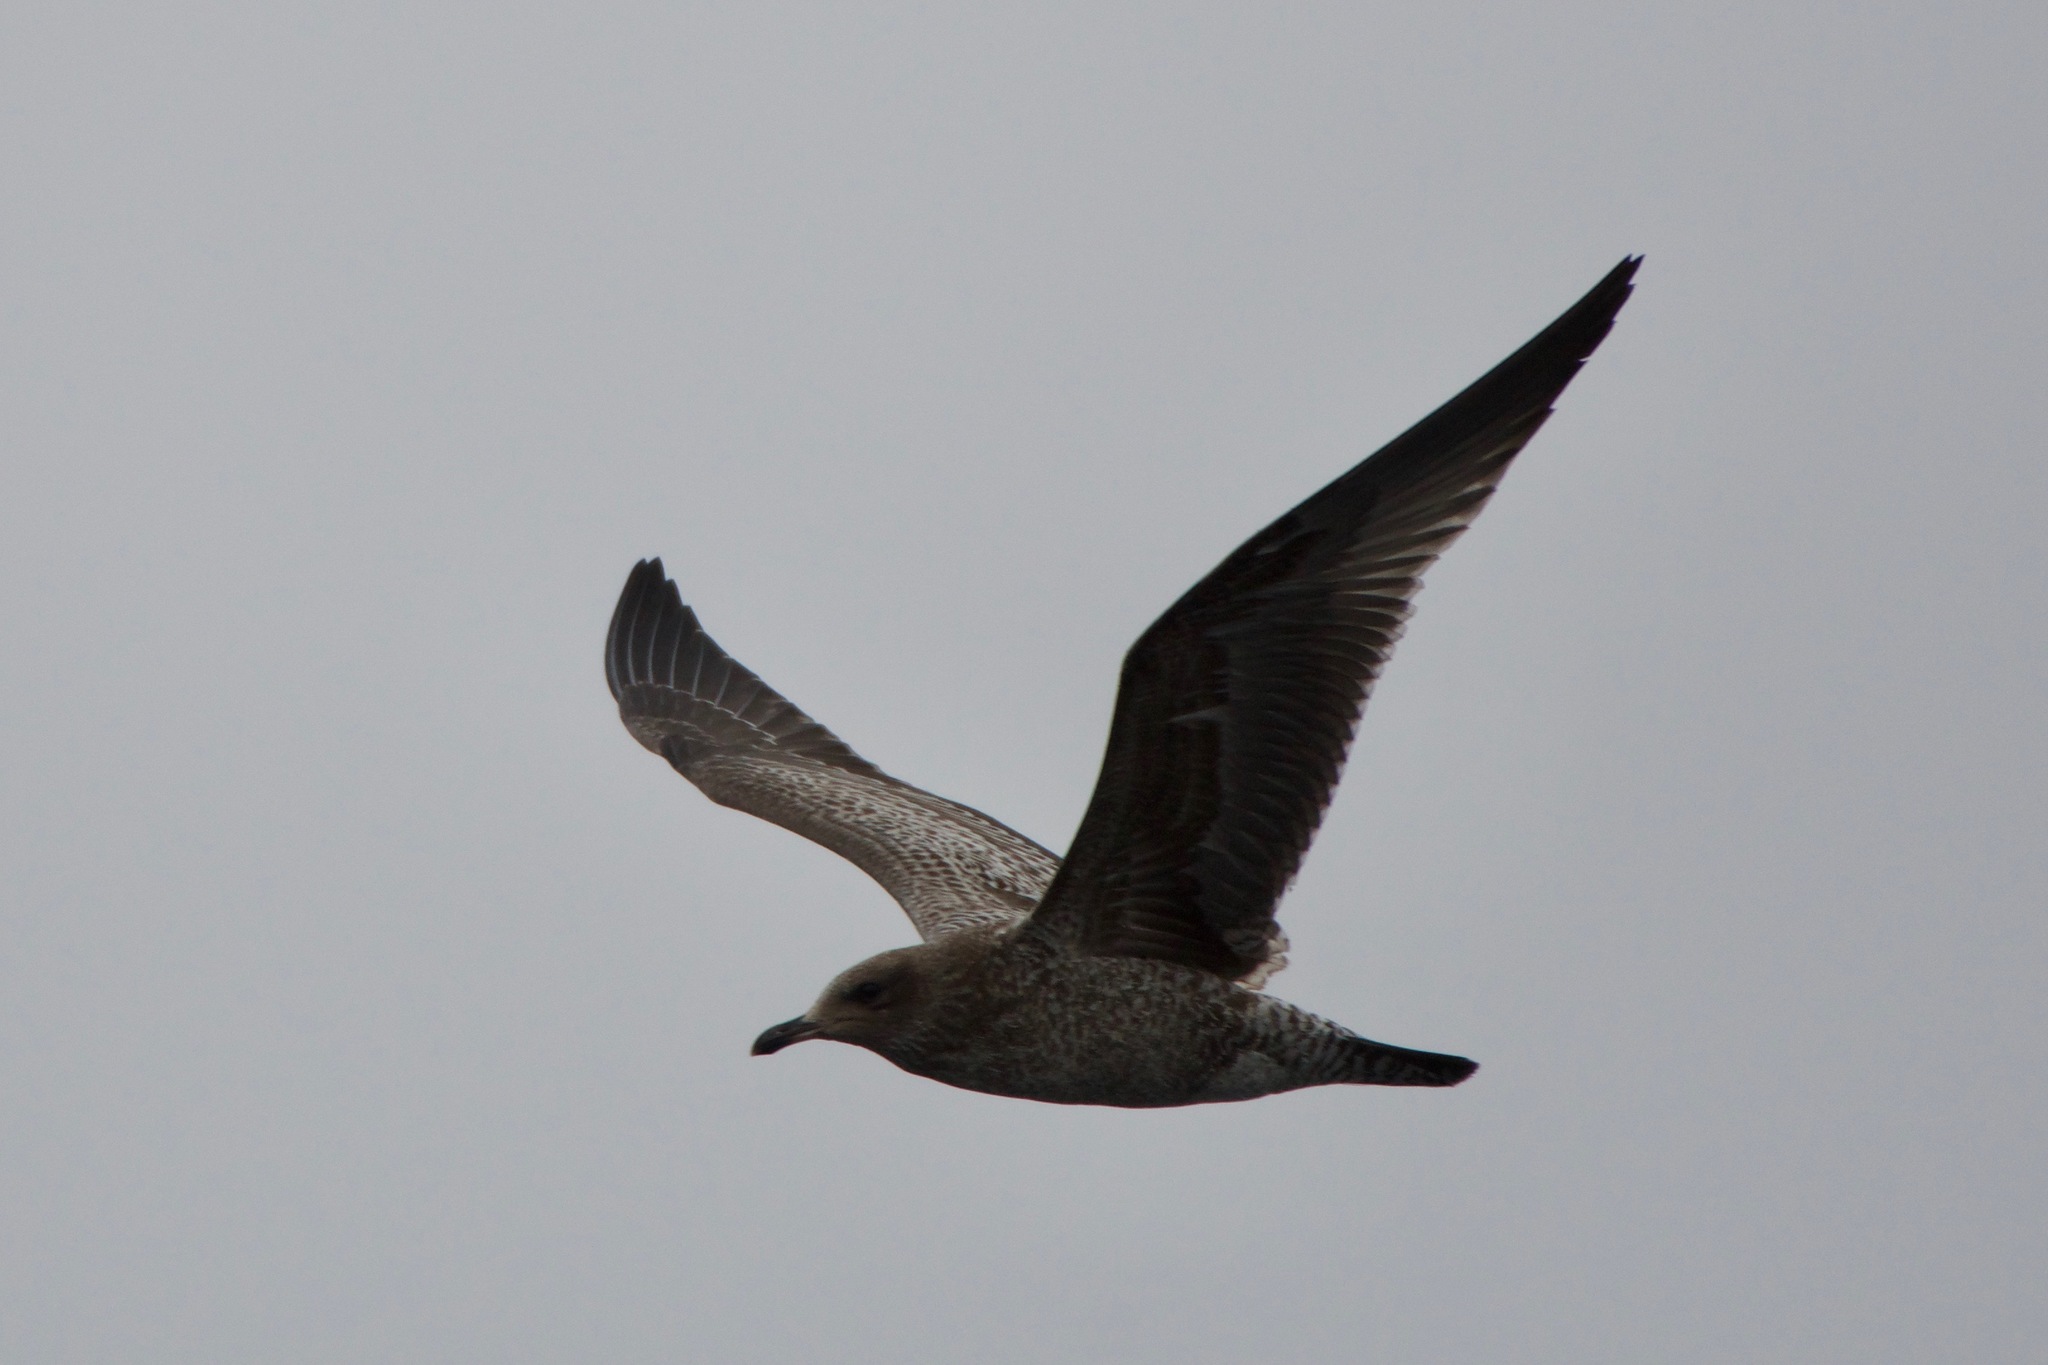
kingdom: Animalia
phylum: Chordata
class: Aves
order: Charadriiformes
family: Laridae
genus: Larus
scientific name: Larus californicus
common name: California gull
